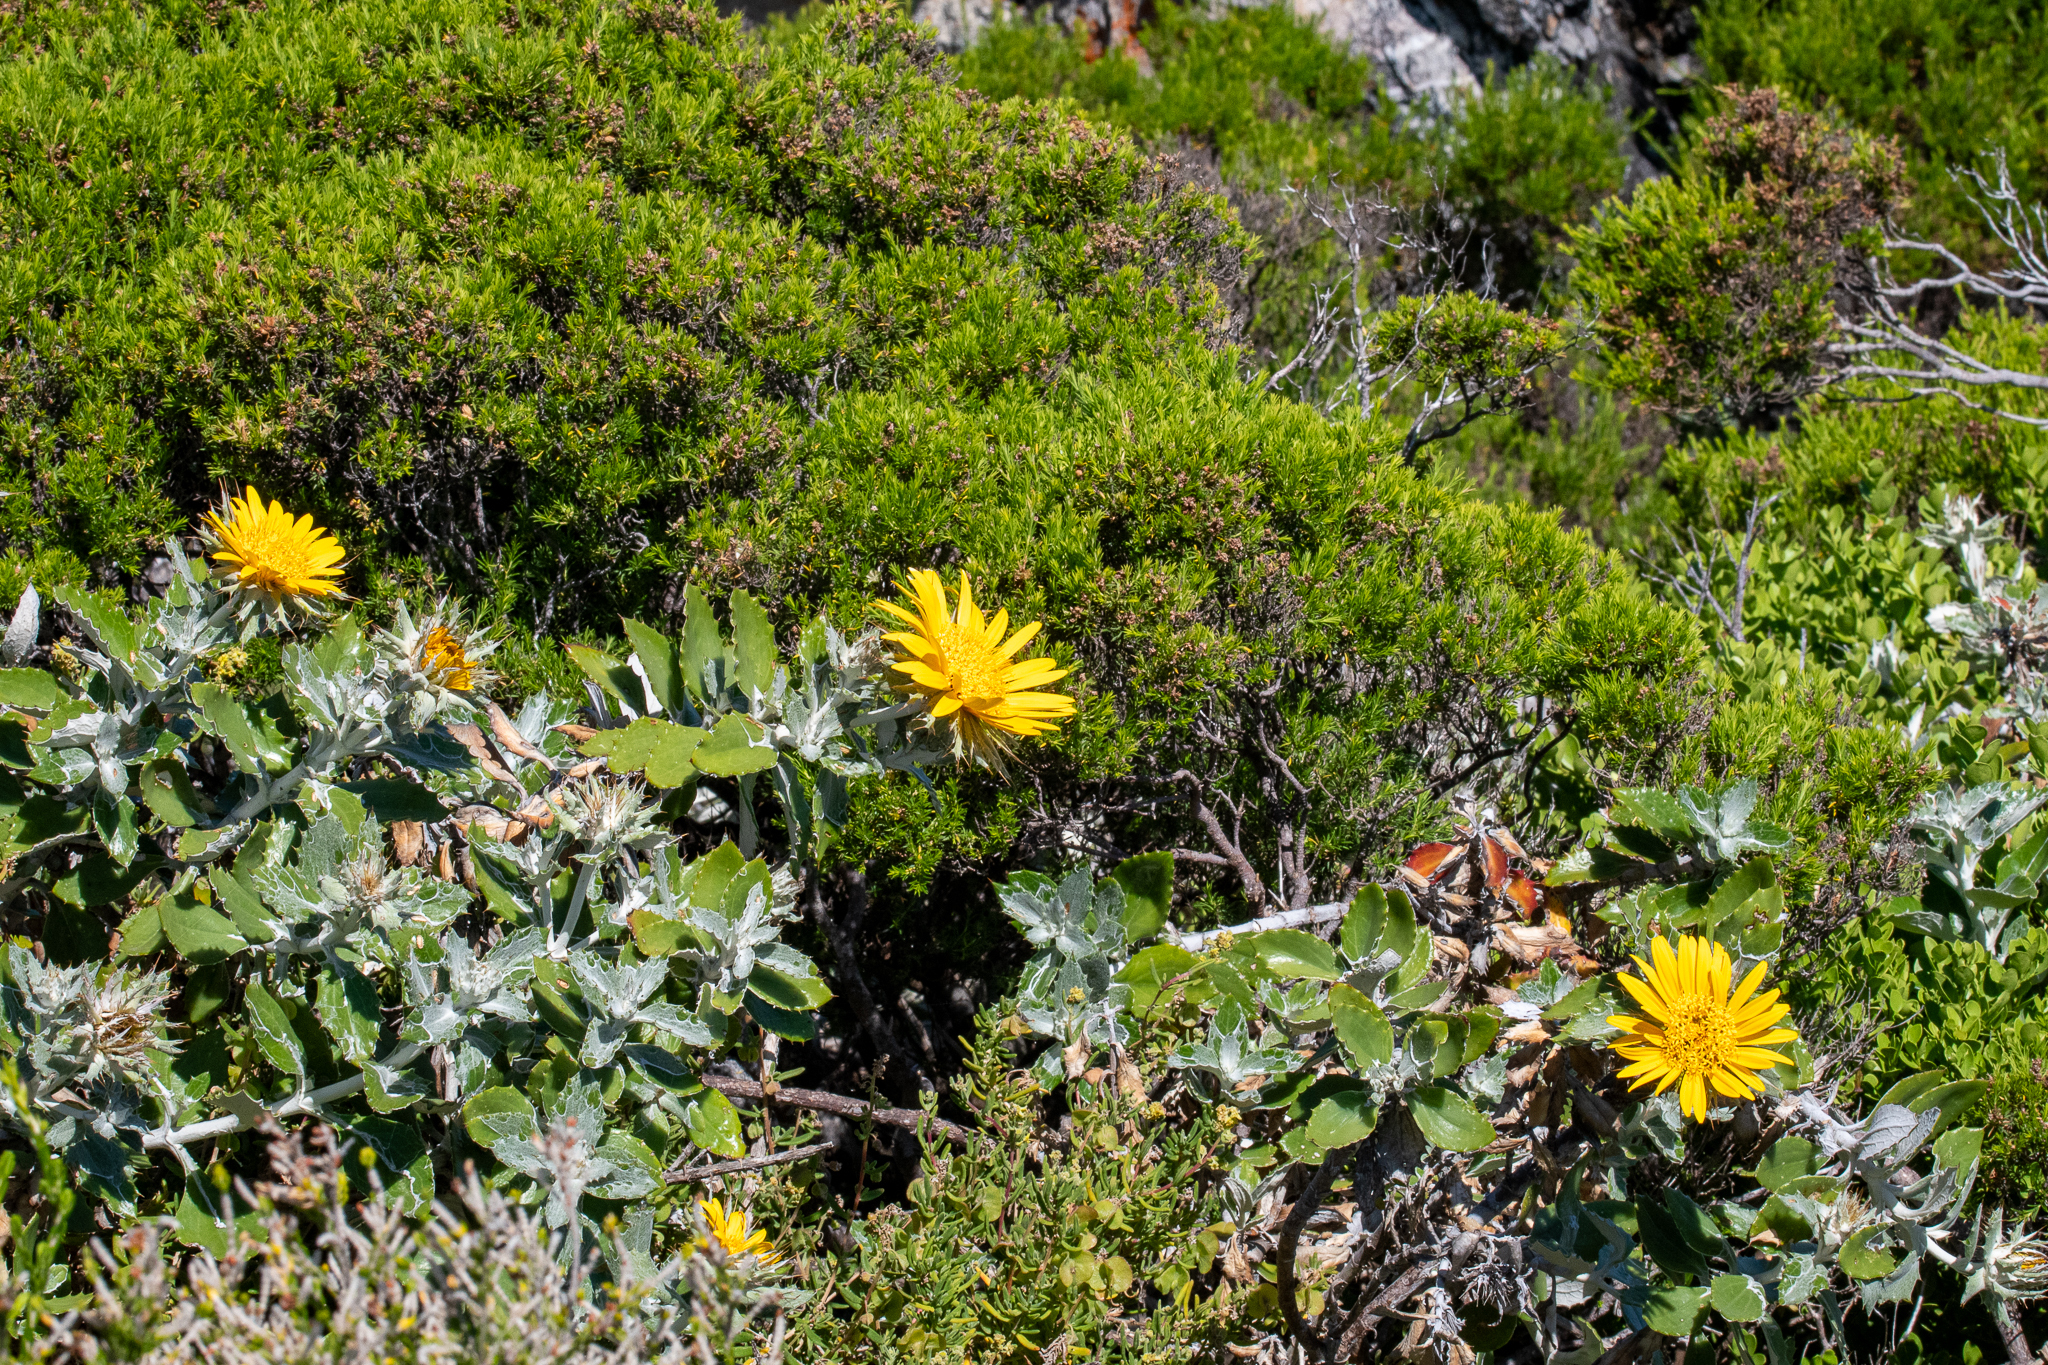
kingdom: Plantae
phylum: Tracheophyta
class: Magnoliopsida
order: Asterales
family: Asteraceae
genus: Berkheya
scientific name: Berkheya barbata
